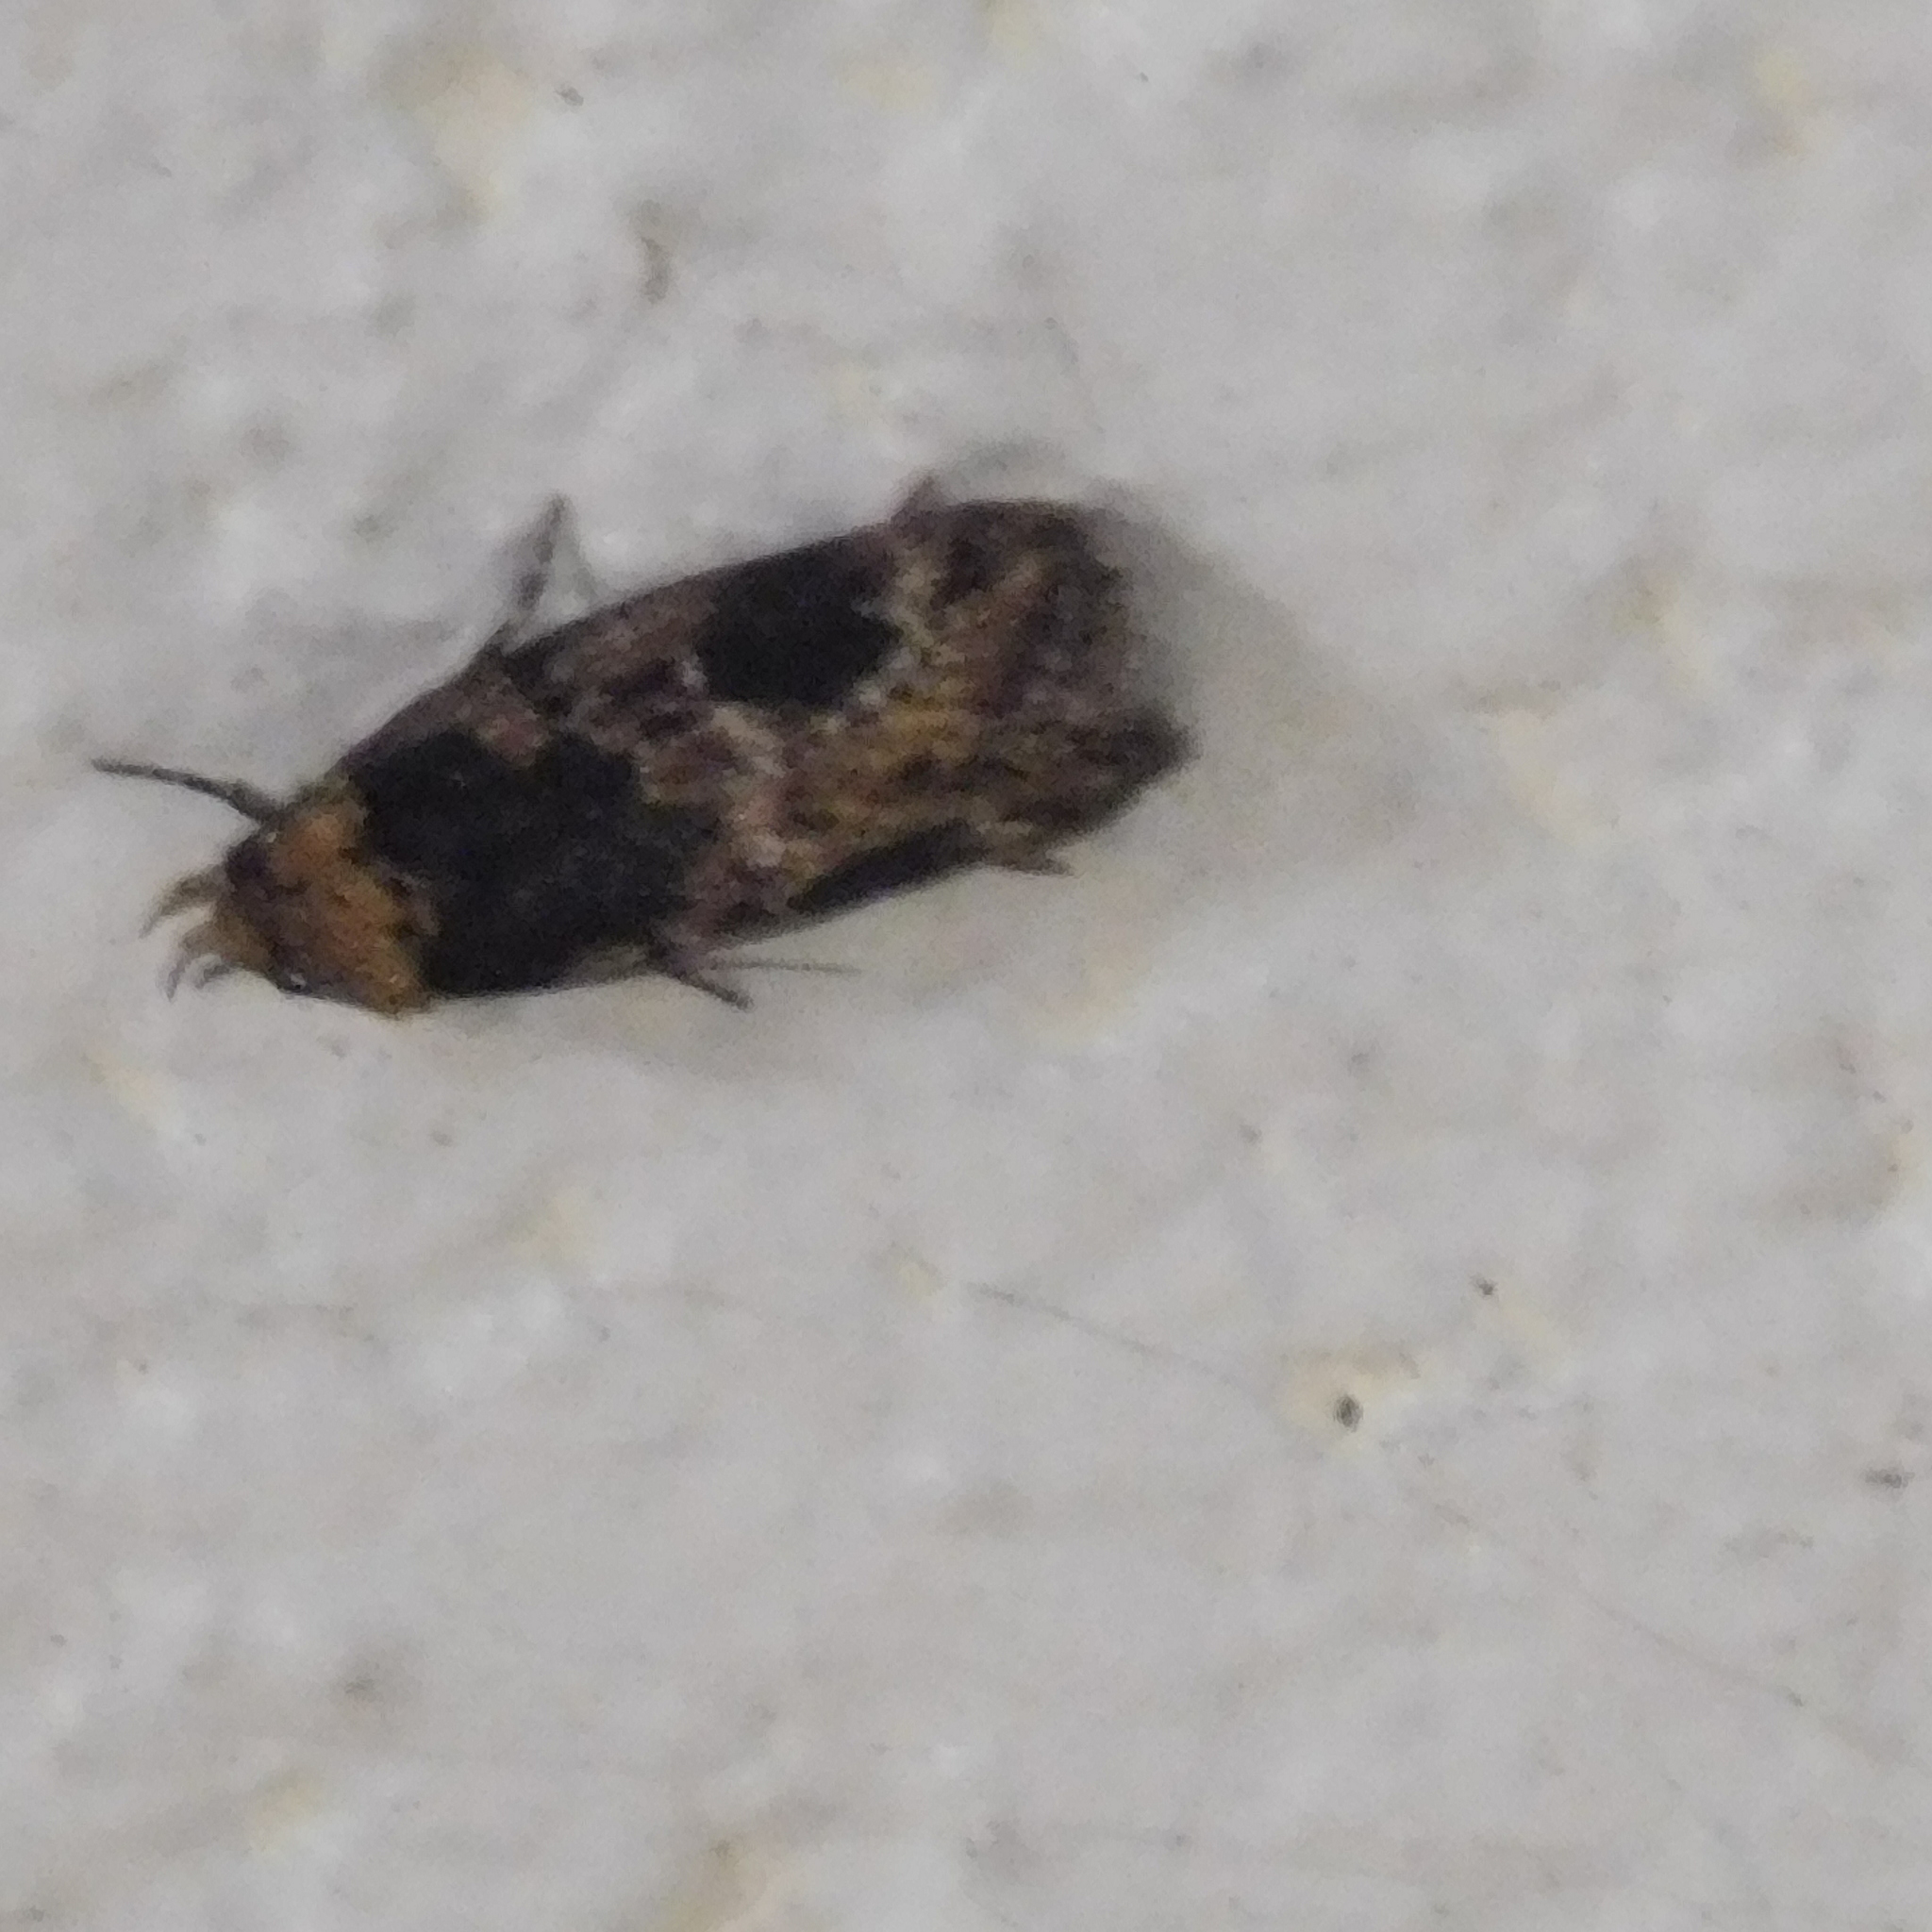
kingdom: Animalia
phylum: Arthropoda
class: Insecta
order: Lepidoptera
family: Oecophoridae
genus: Barea
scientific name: Barea consignatella
